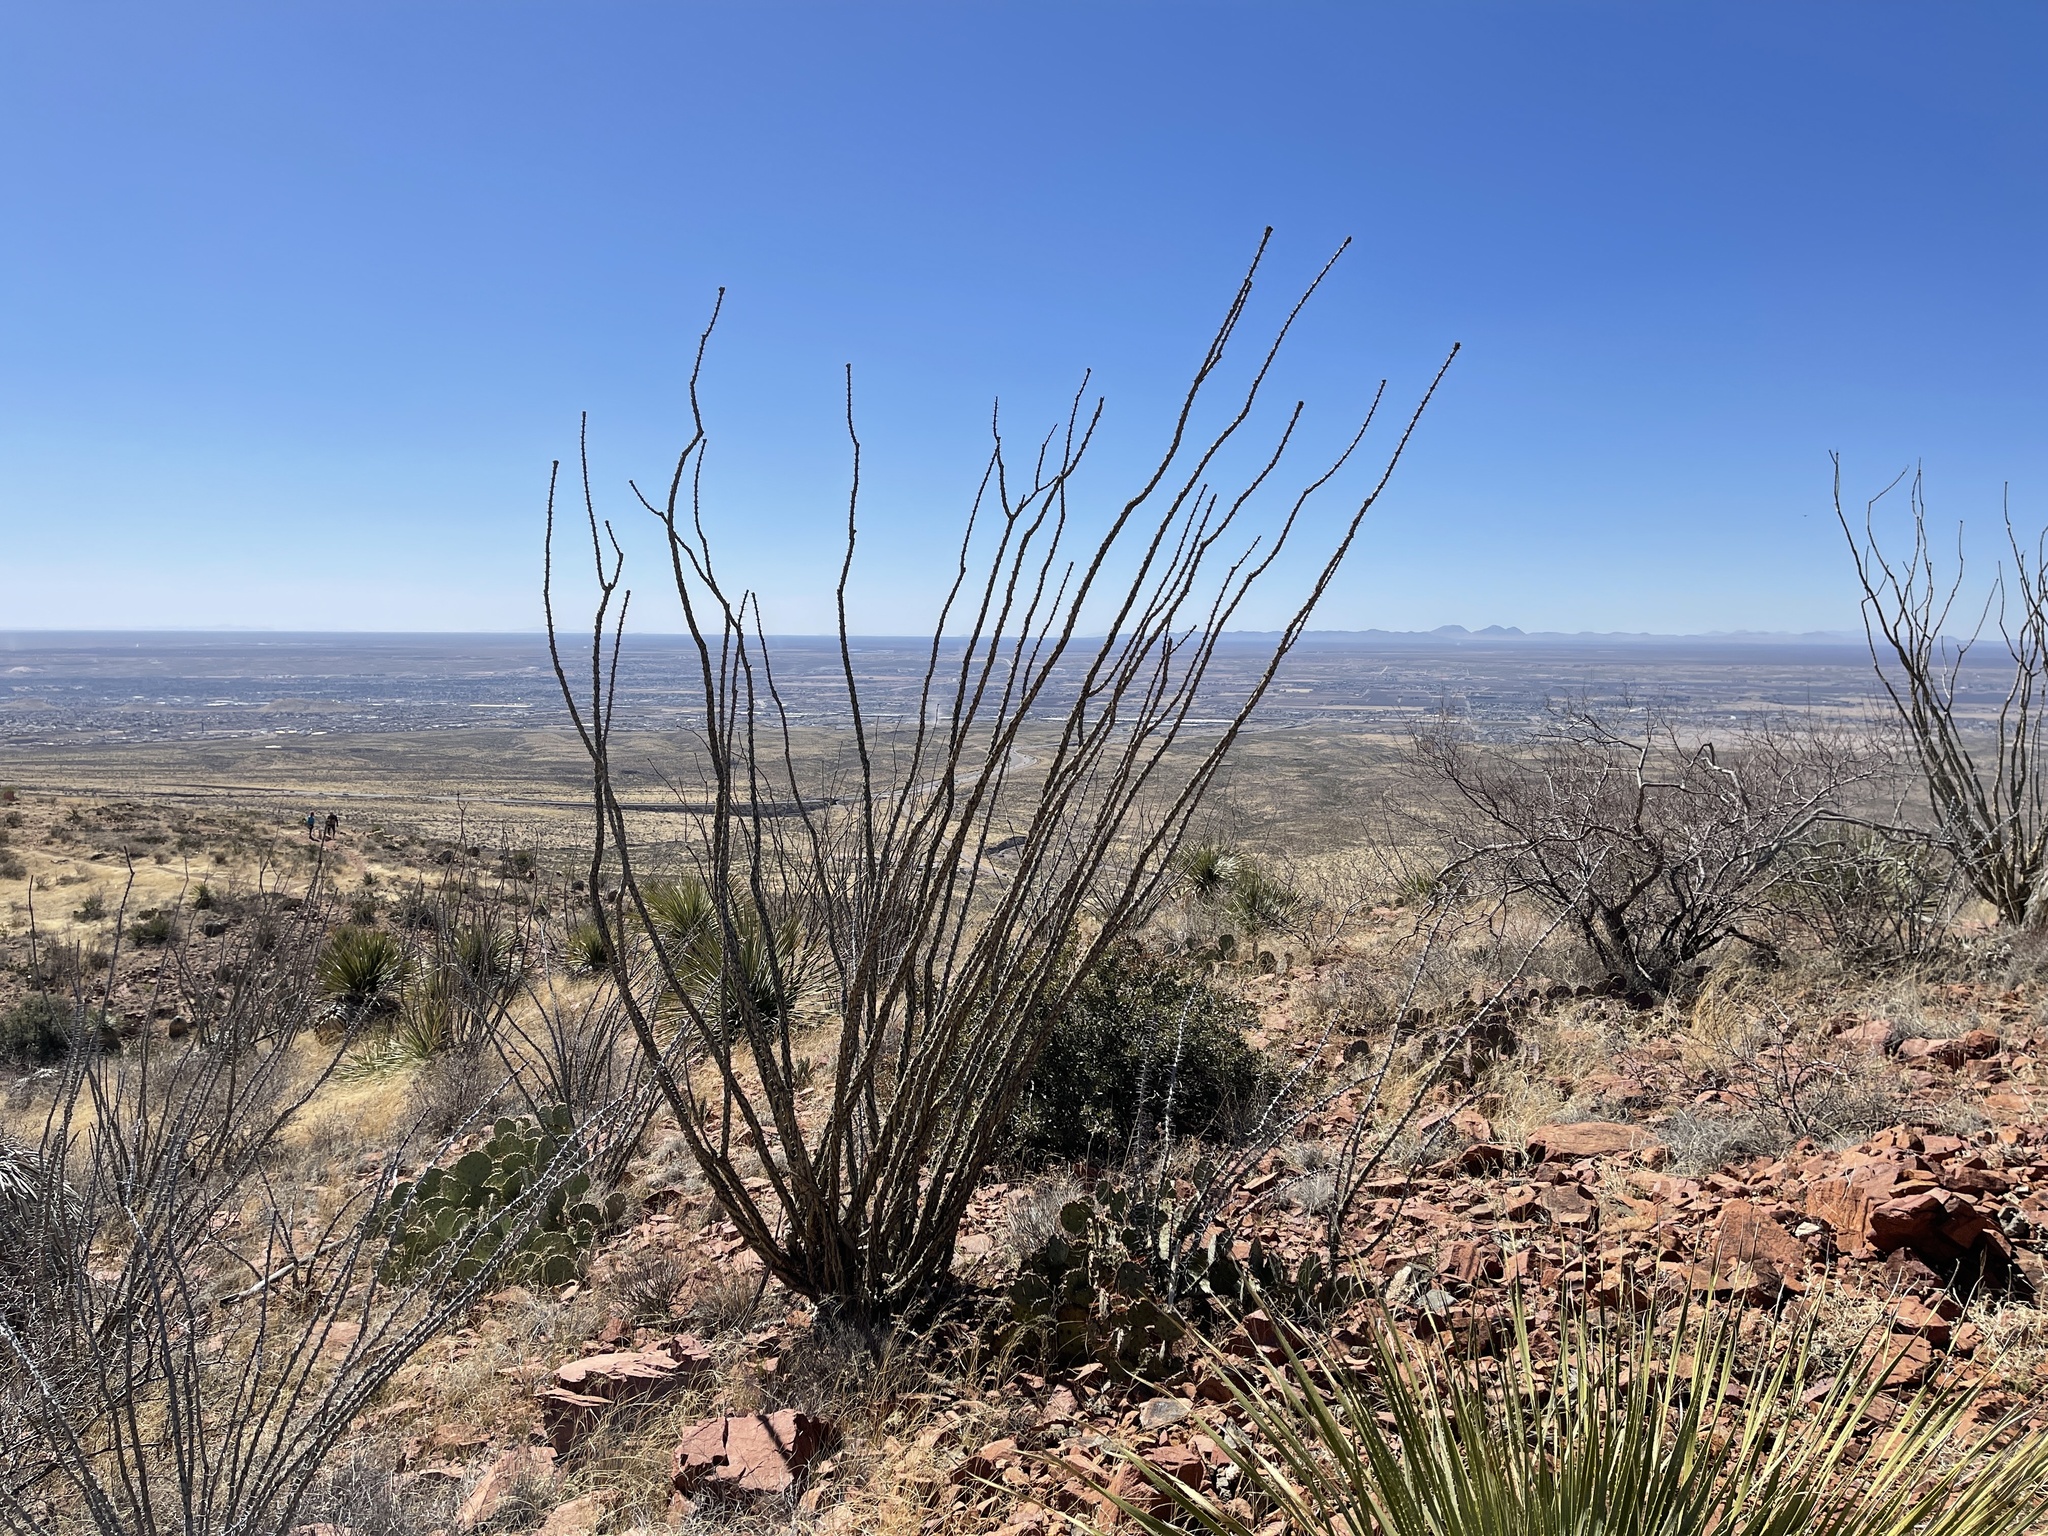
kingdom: Plantae
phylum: Tracheophyta
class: Magnoliopsida
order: Ericales
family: Fouquieriaceae
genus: Fouquieria
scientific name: Fouquieria splendens
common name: Vine-cactus
